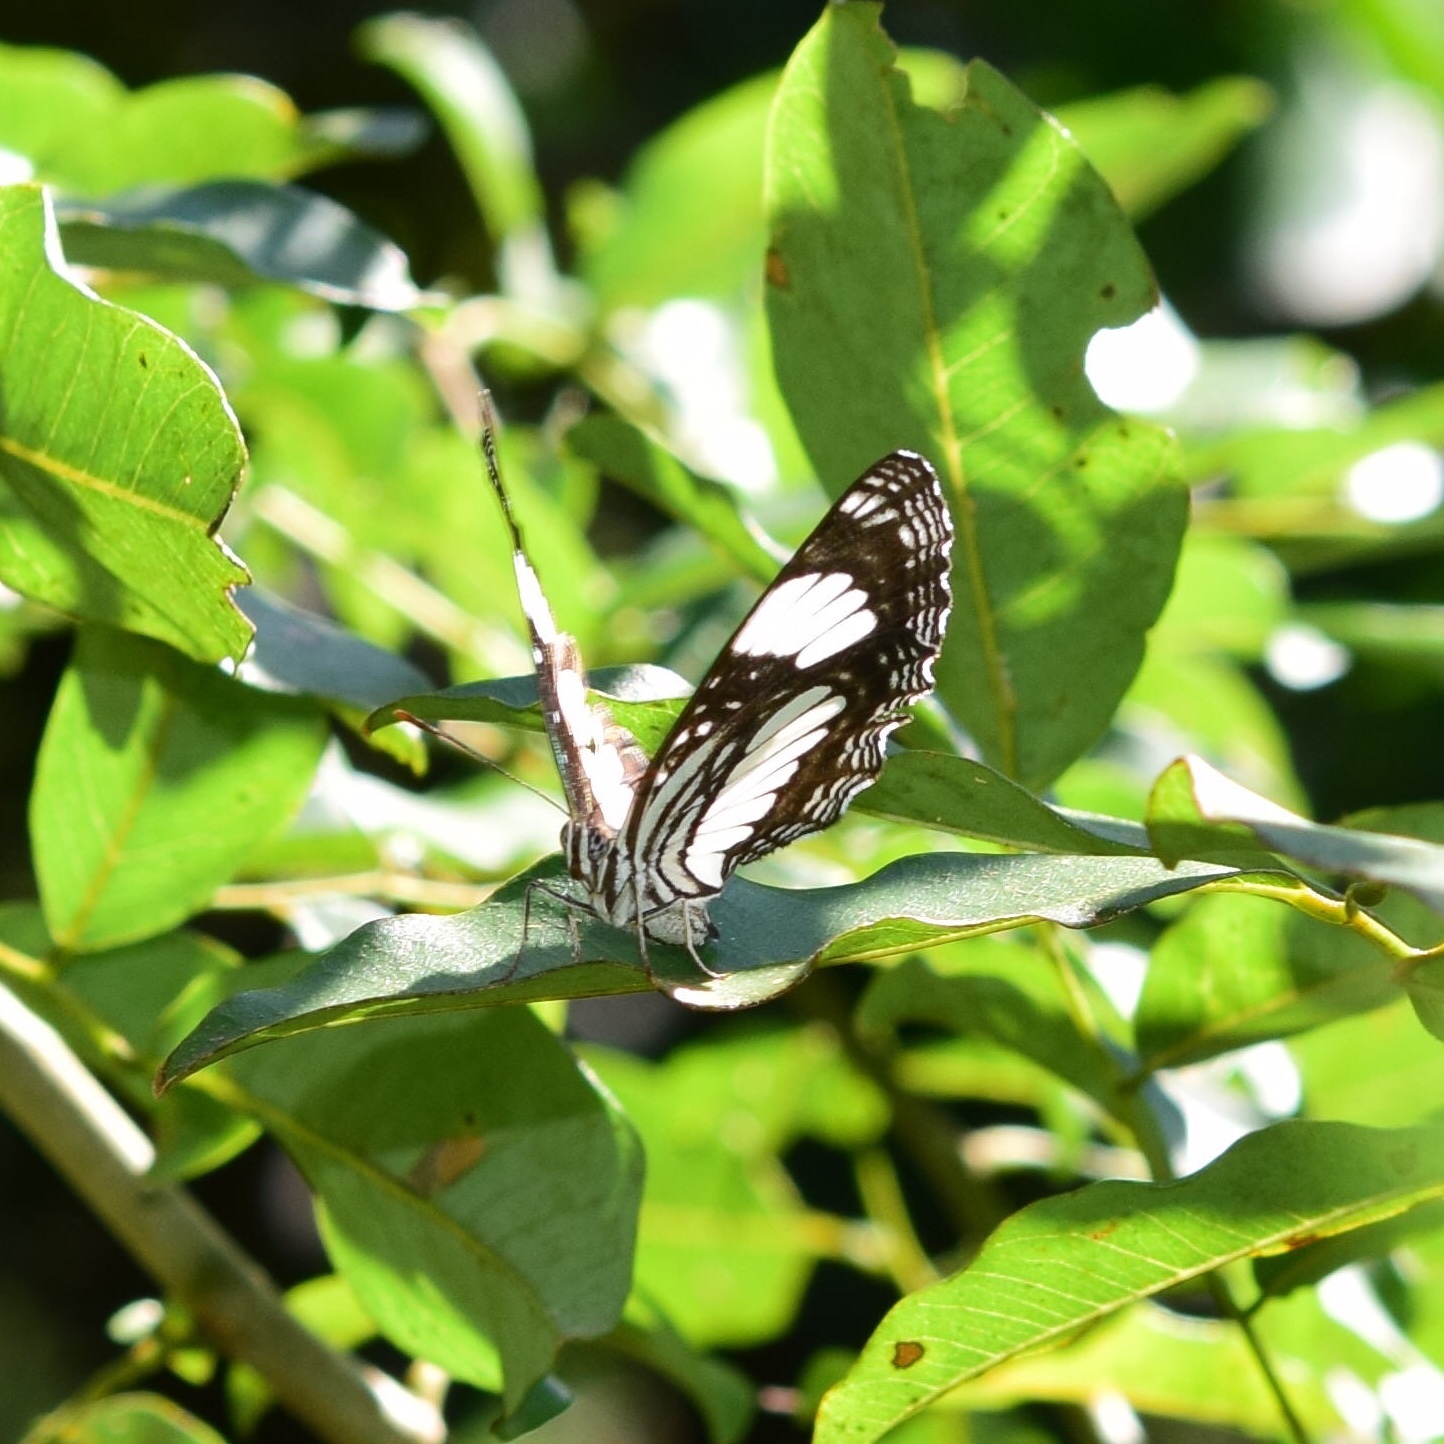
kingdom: Animalia
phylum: Arthropoda
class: Insecta
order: Lepidoptera
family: Nymphalidae
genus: Neptis
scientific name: Neptis laeta
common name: Common barred sailor
